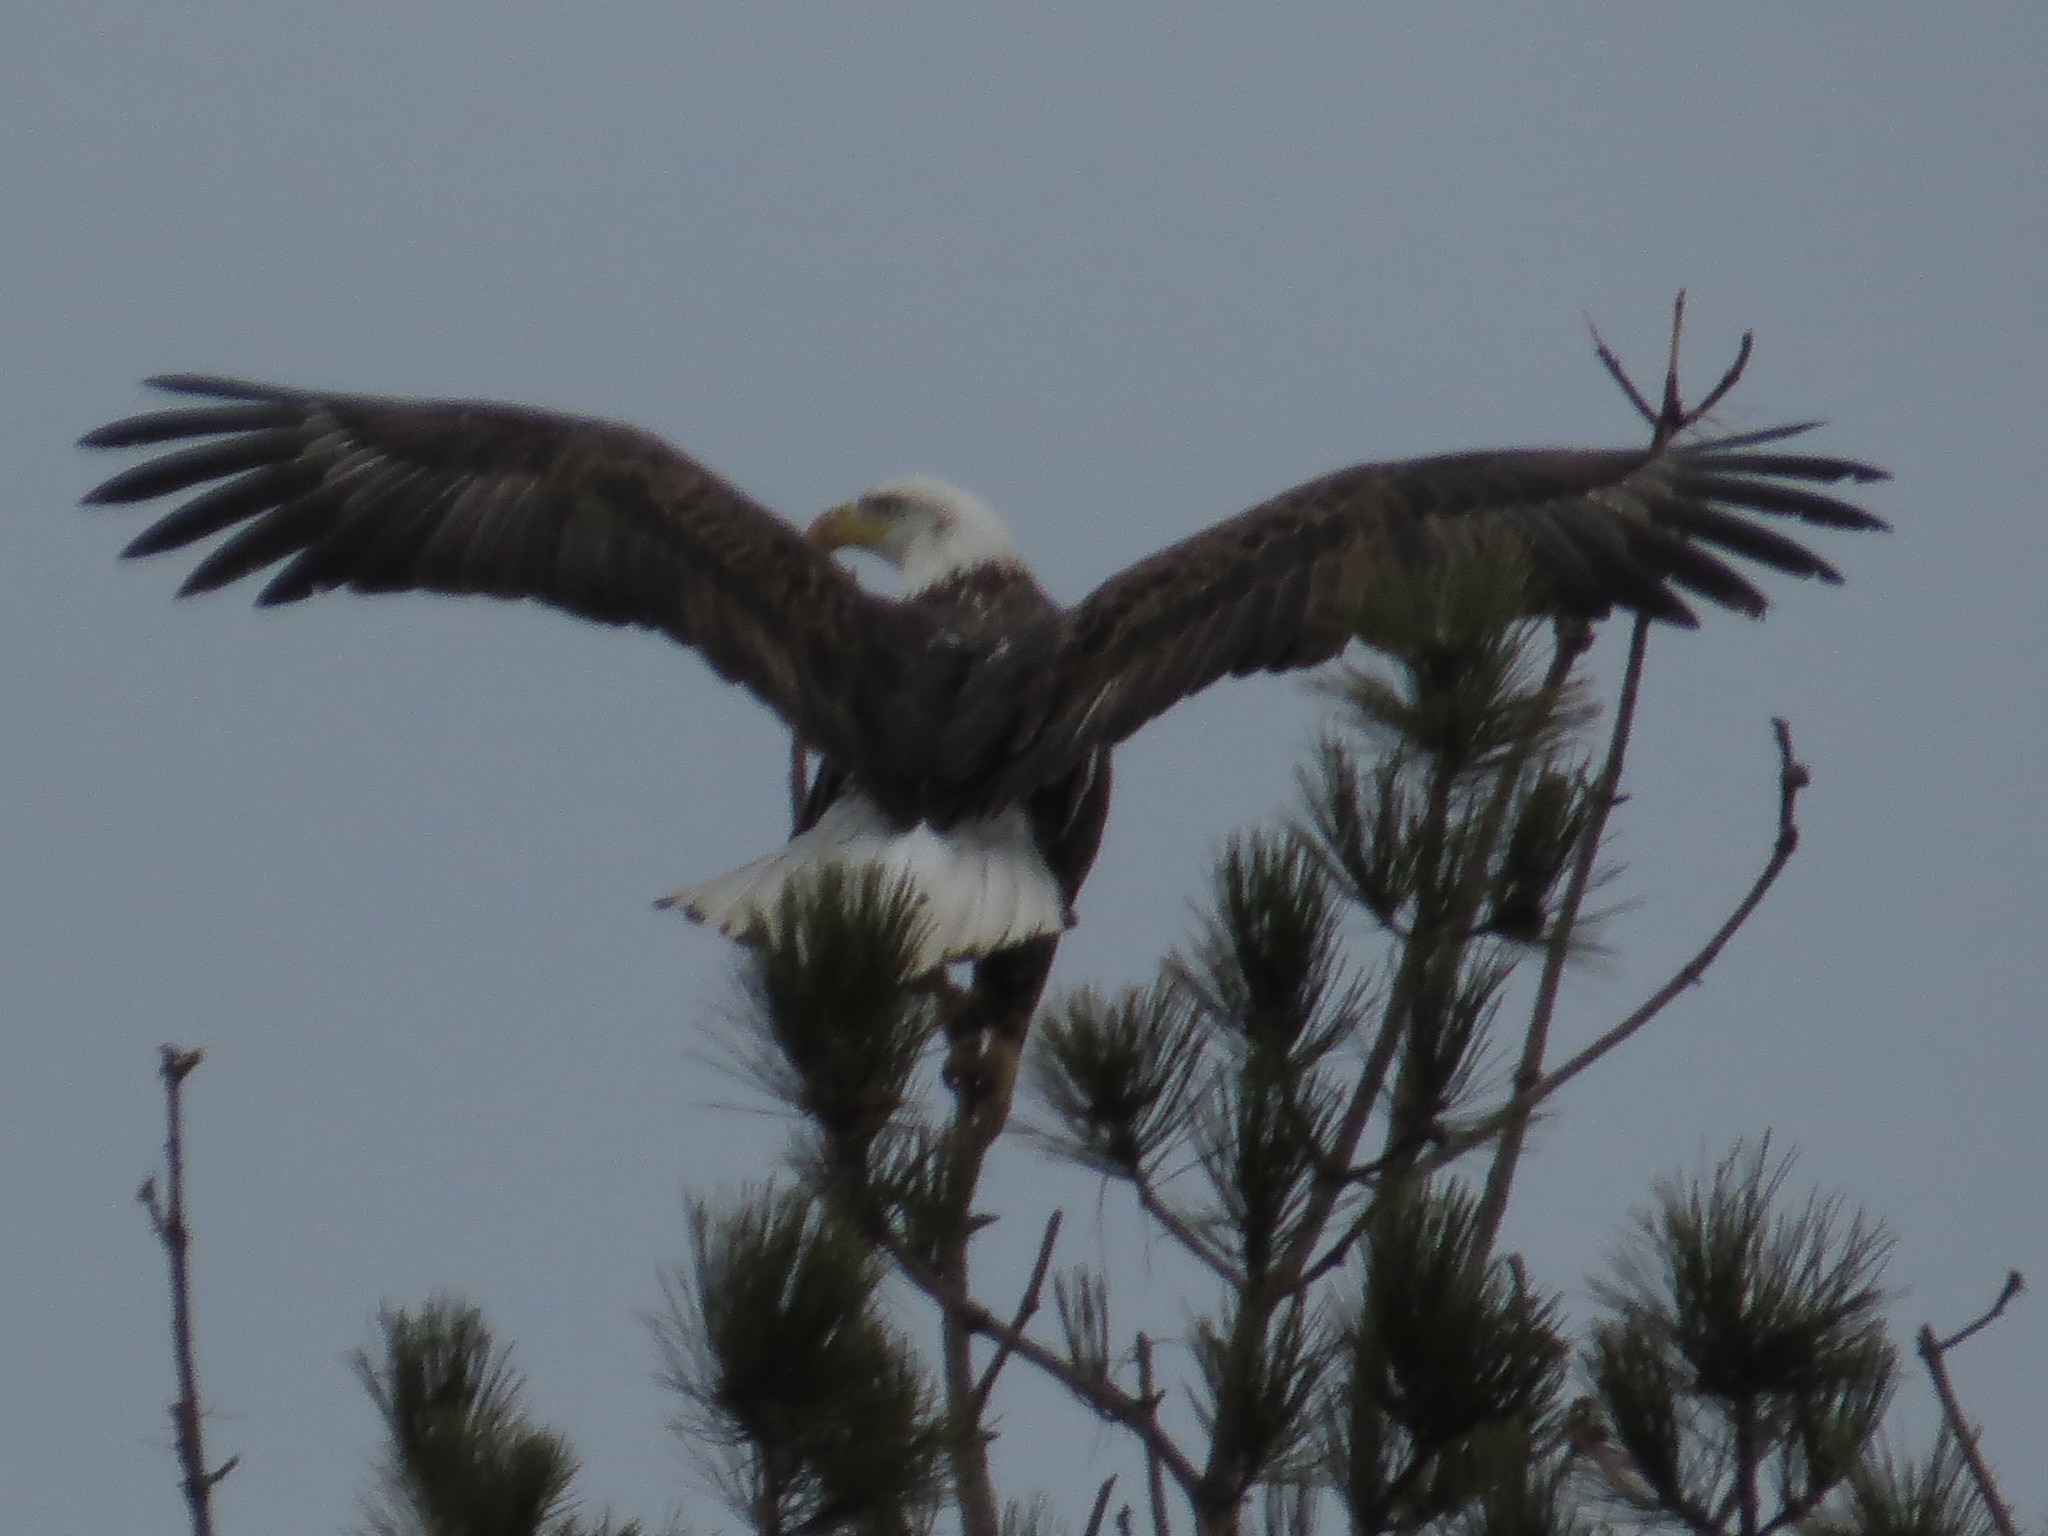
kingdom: Animalia
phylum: Chordata
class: Aves
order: Accipitriformes
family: Accipitridae
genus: Haliaeetus
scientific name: Haliaeetus leucocephalus
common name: Bald eagle
